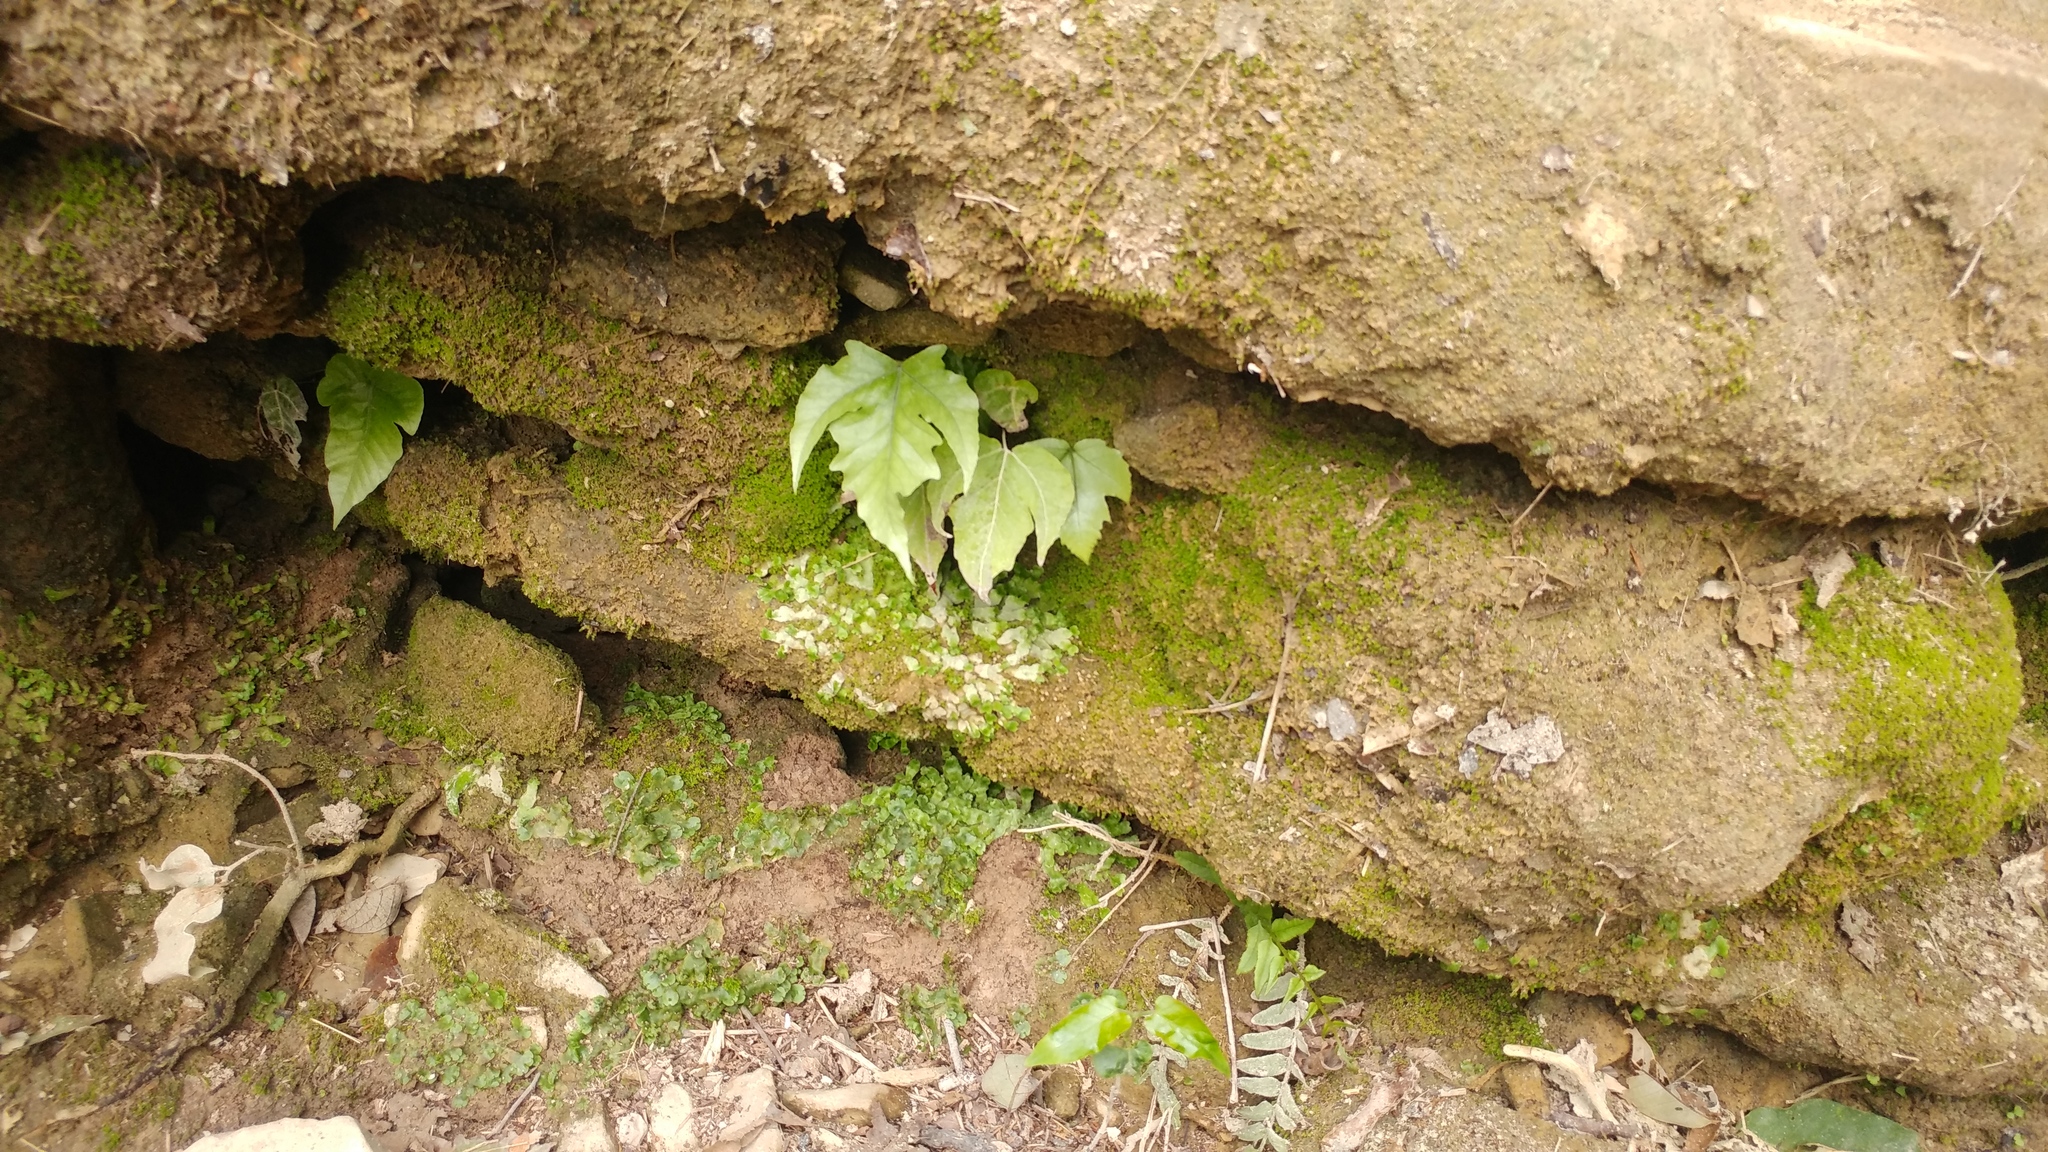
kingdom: Plantae
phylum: Tracheophyta
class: Polypodiopsida
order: Polypodiales
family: Tectariaceae
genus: Tectaria
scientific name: Tectaria heracleifolia
